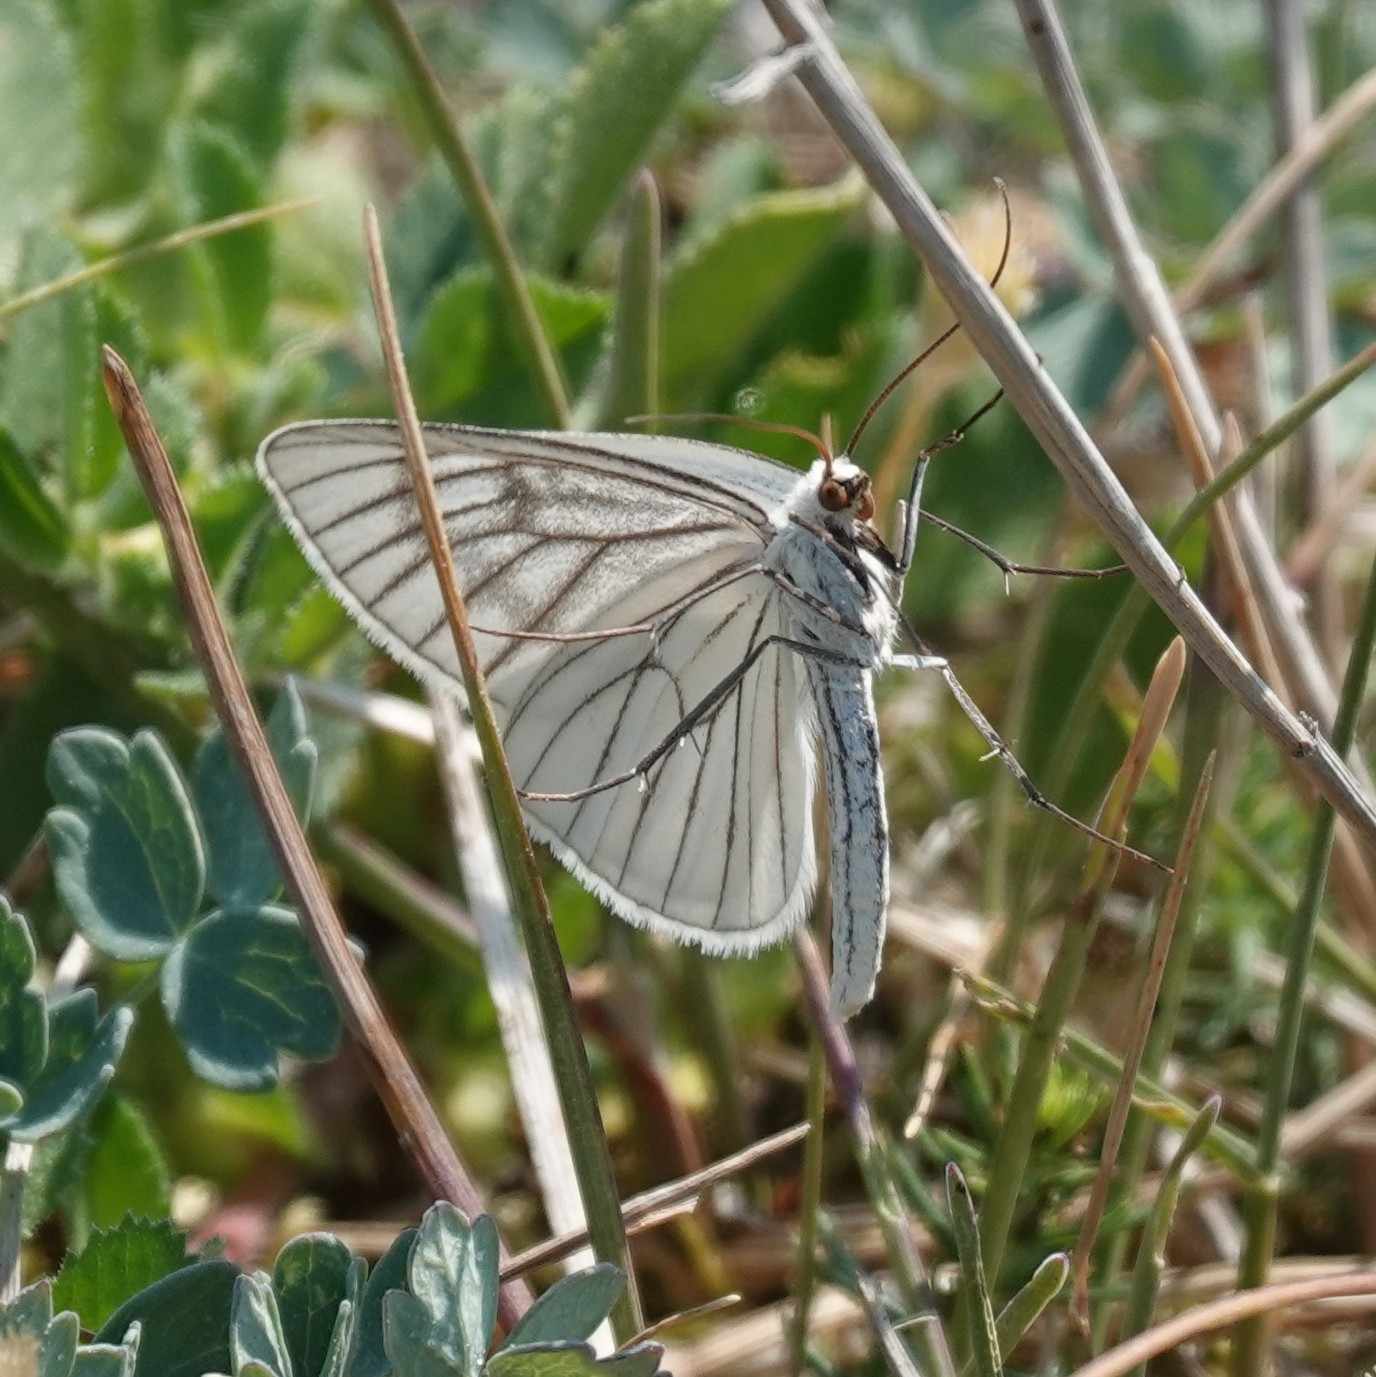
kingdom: Animalia
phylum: Arthropoda
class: Insecta
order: Lepidoptera
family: Geometridae
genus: Siona
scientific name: Siona lineata
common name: Black-veined moth
